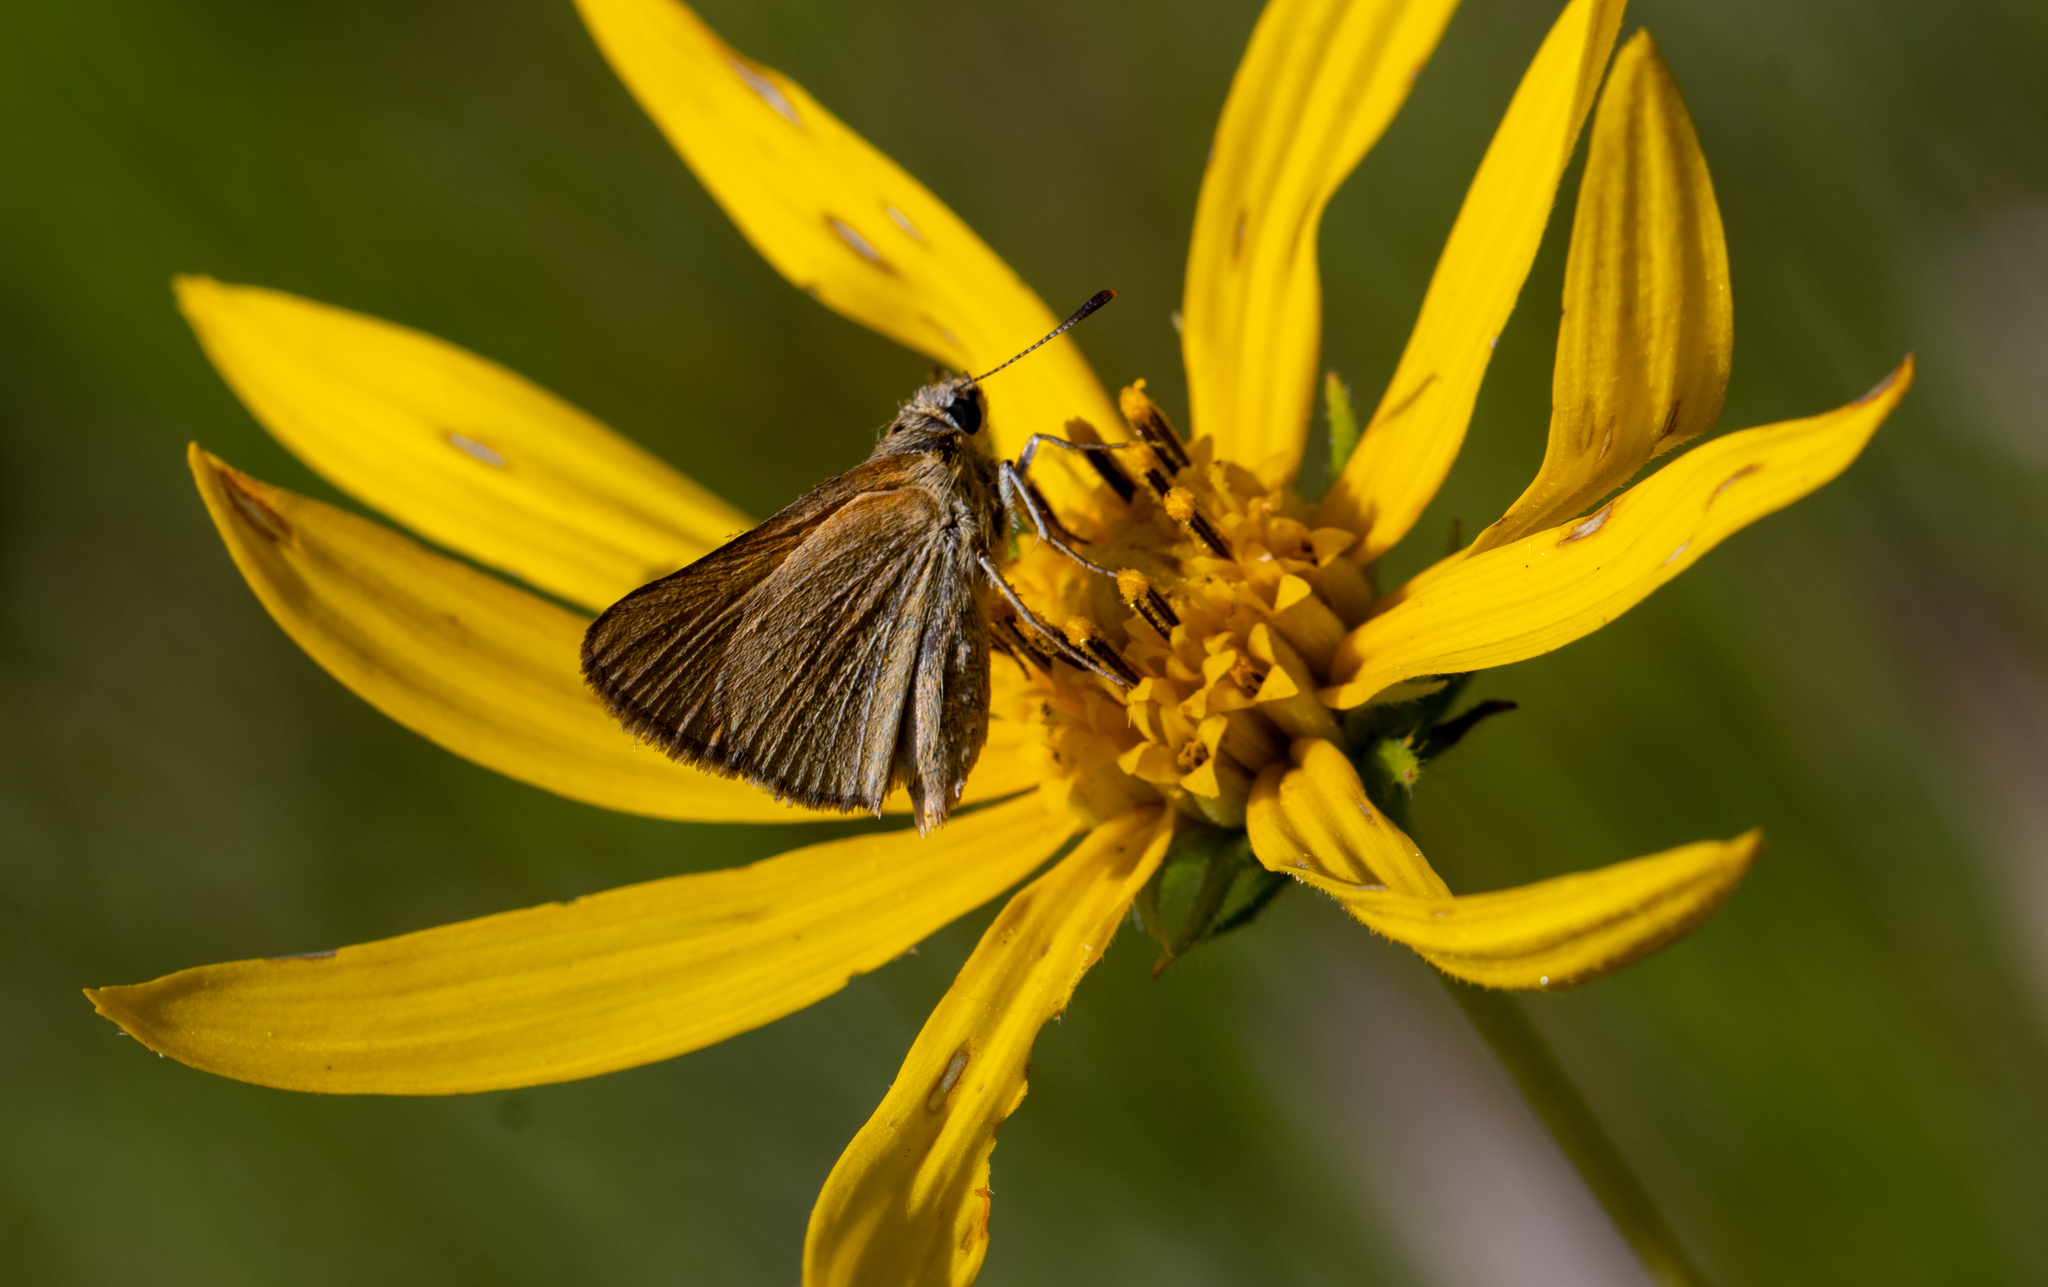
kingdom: Animalia
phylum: Arthropoda
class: Insecta
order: Lepidoptera
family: Hesperiidae
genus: Atrytone
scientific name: Atrytone arogos
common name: Arogos skipper
